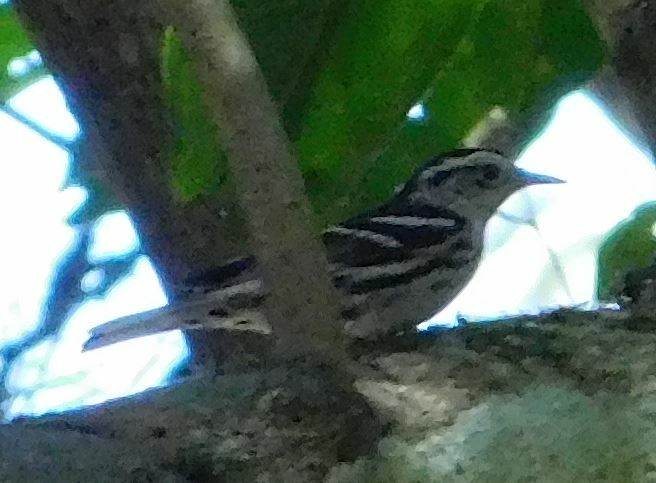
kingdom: Animalia
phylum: Chordata
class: Aves
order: Passeriformes
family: Parulidae
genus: Mniotilta
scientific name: Mniotilta varia
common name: Black-and-white warbler
